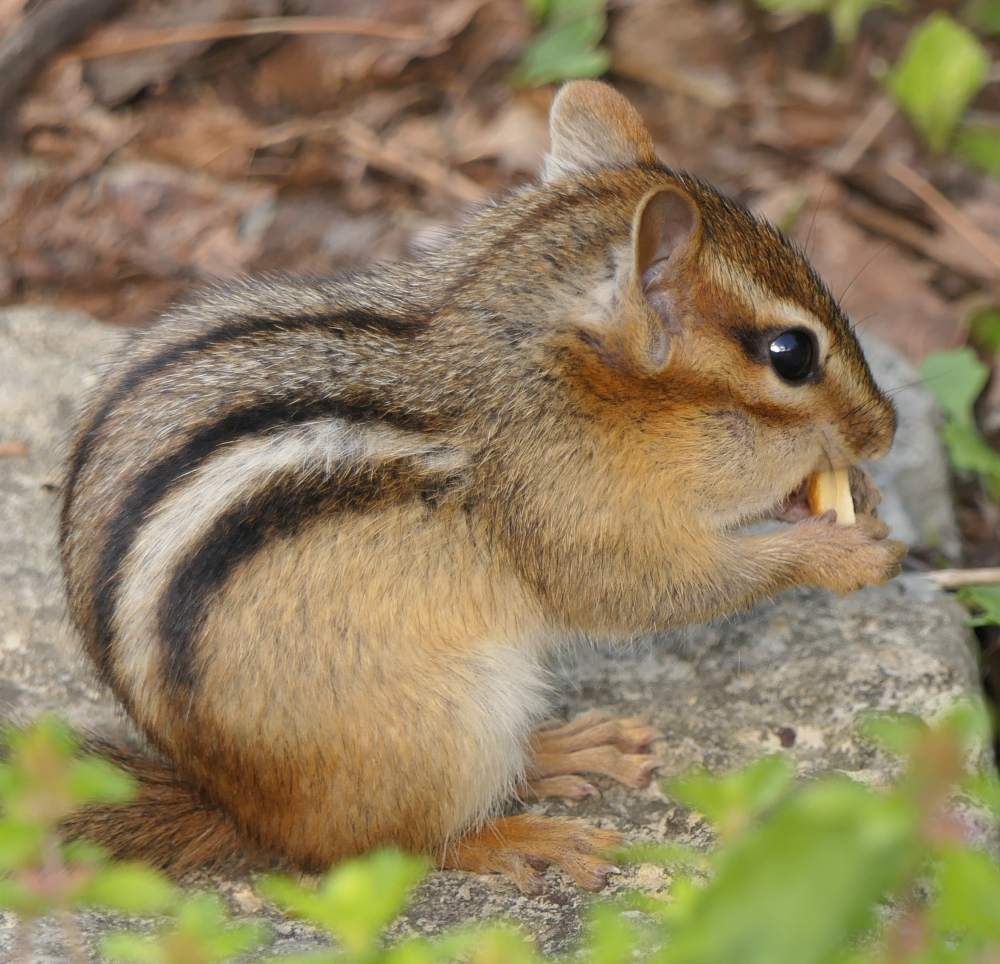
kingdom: Animalia
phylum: Chordata
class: Mammalia
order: Rodentia
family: Sciuridae
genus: Tamias
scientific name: Tamias striatus
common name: Eastern chipmunk
